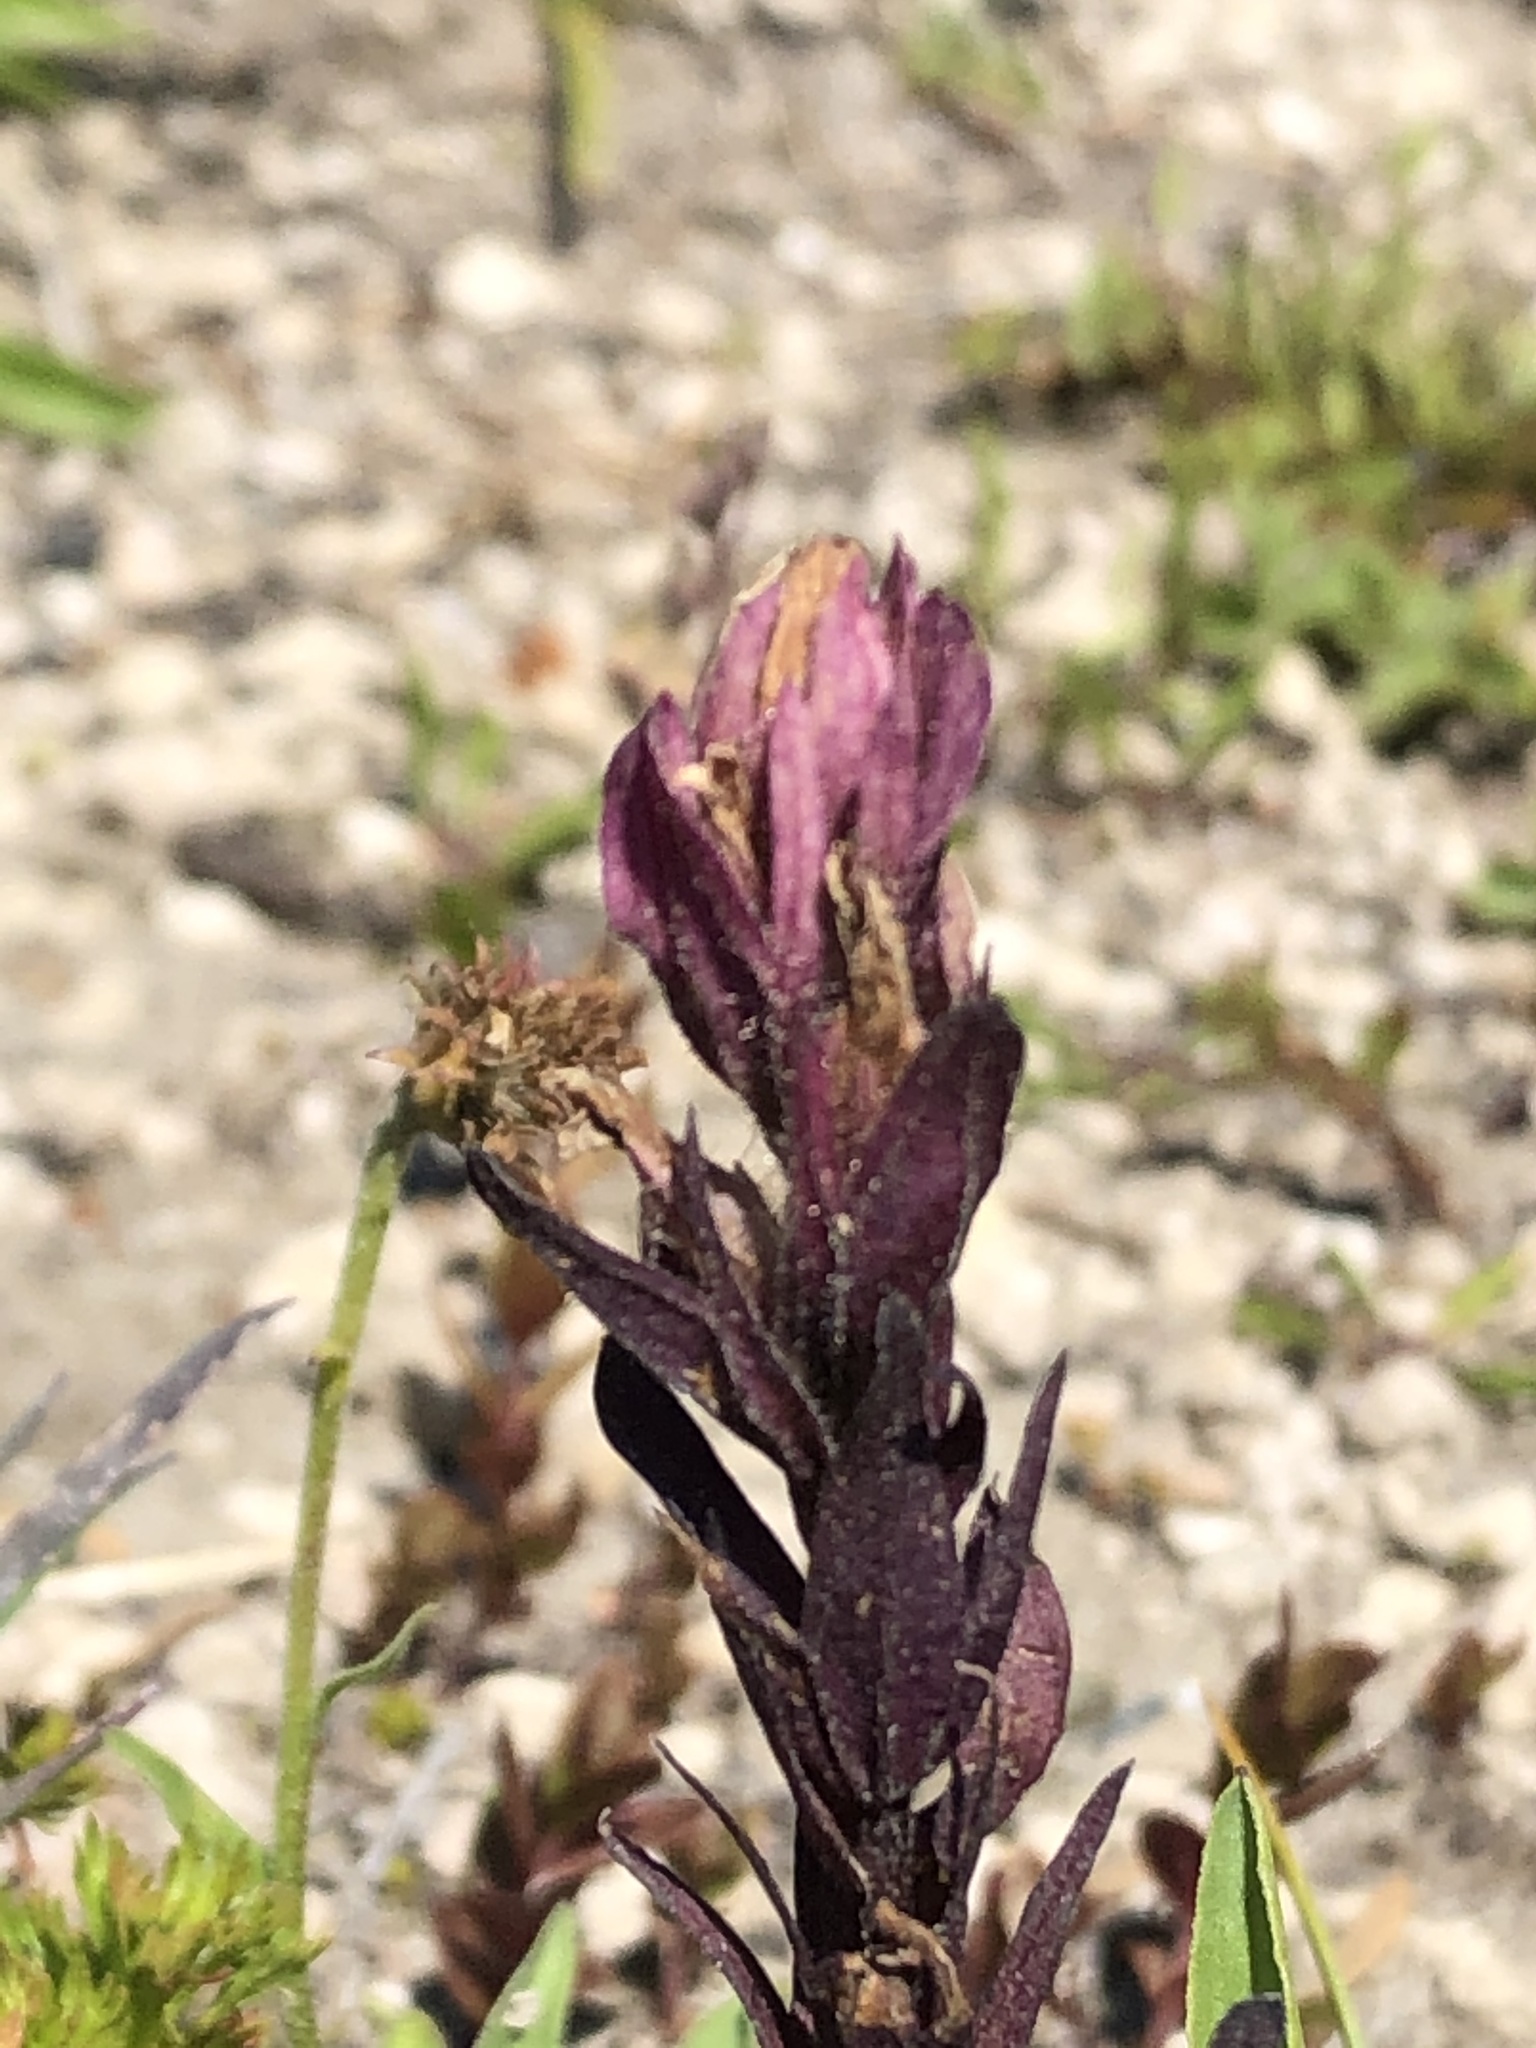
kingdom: Plantae
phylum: Tracheophyta
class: Magnoliopsida
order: Lamiales
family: Orobanchaceae
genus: Castilleja
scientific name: Castilleja parviflora
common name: Mountain paintbrush
